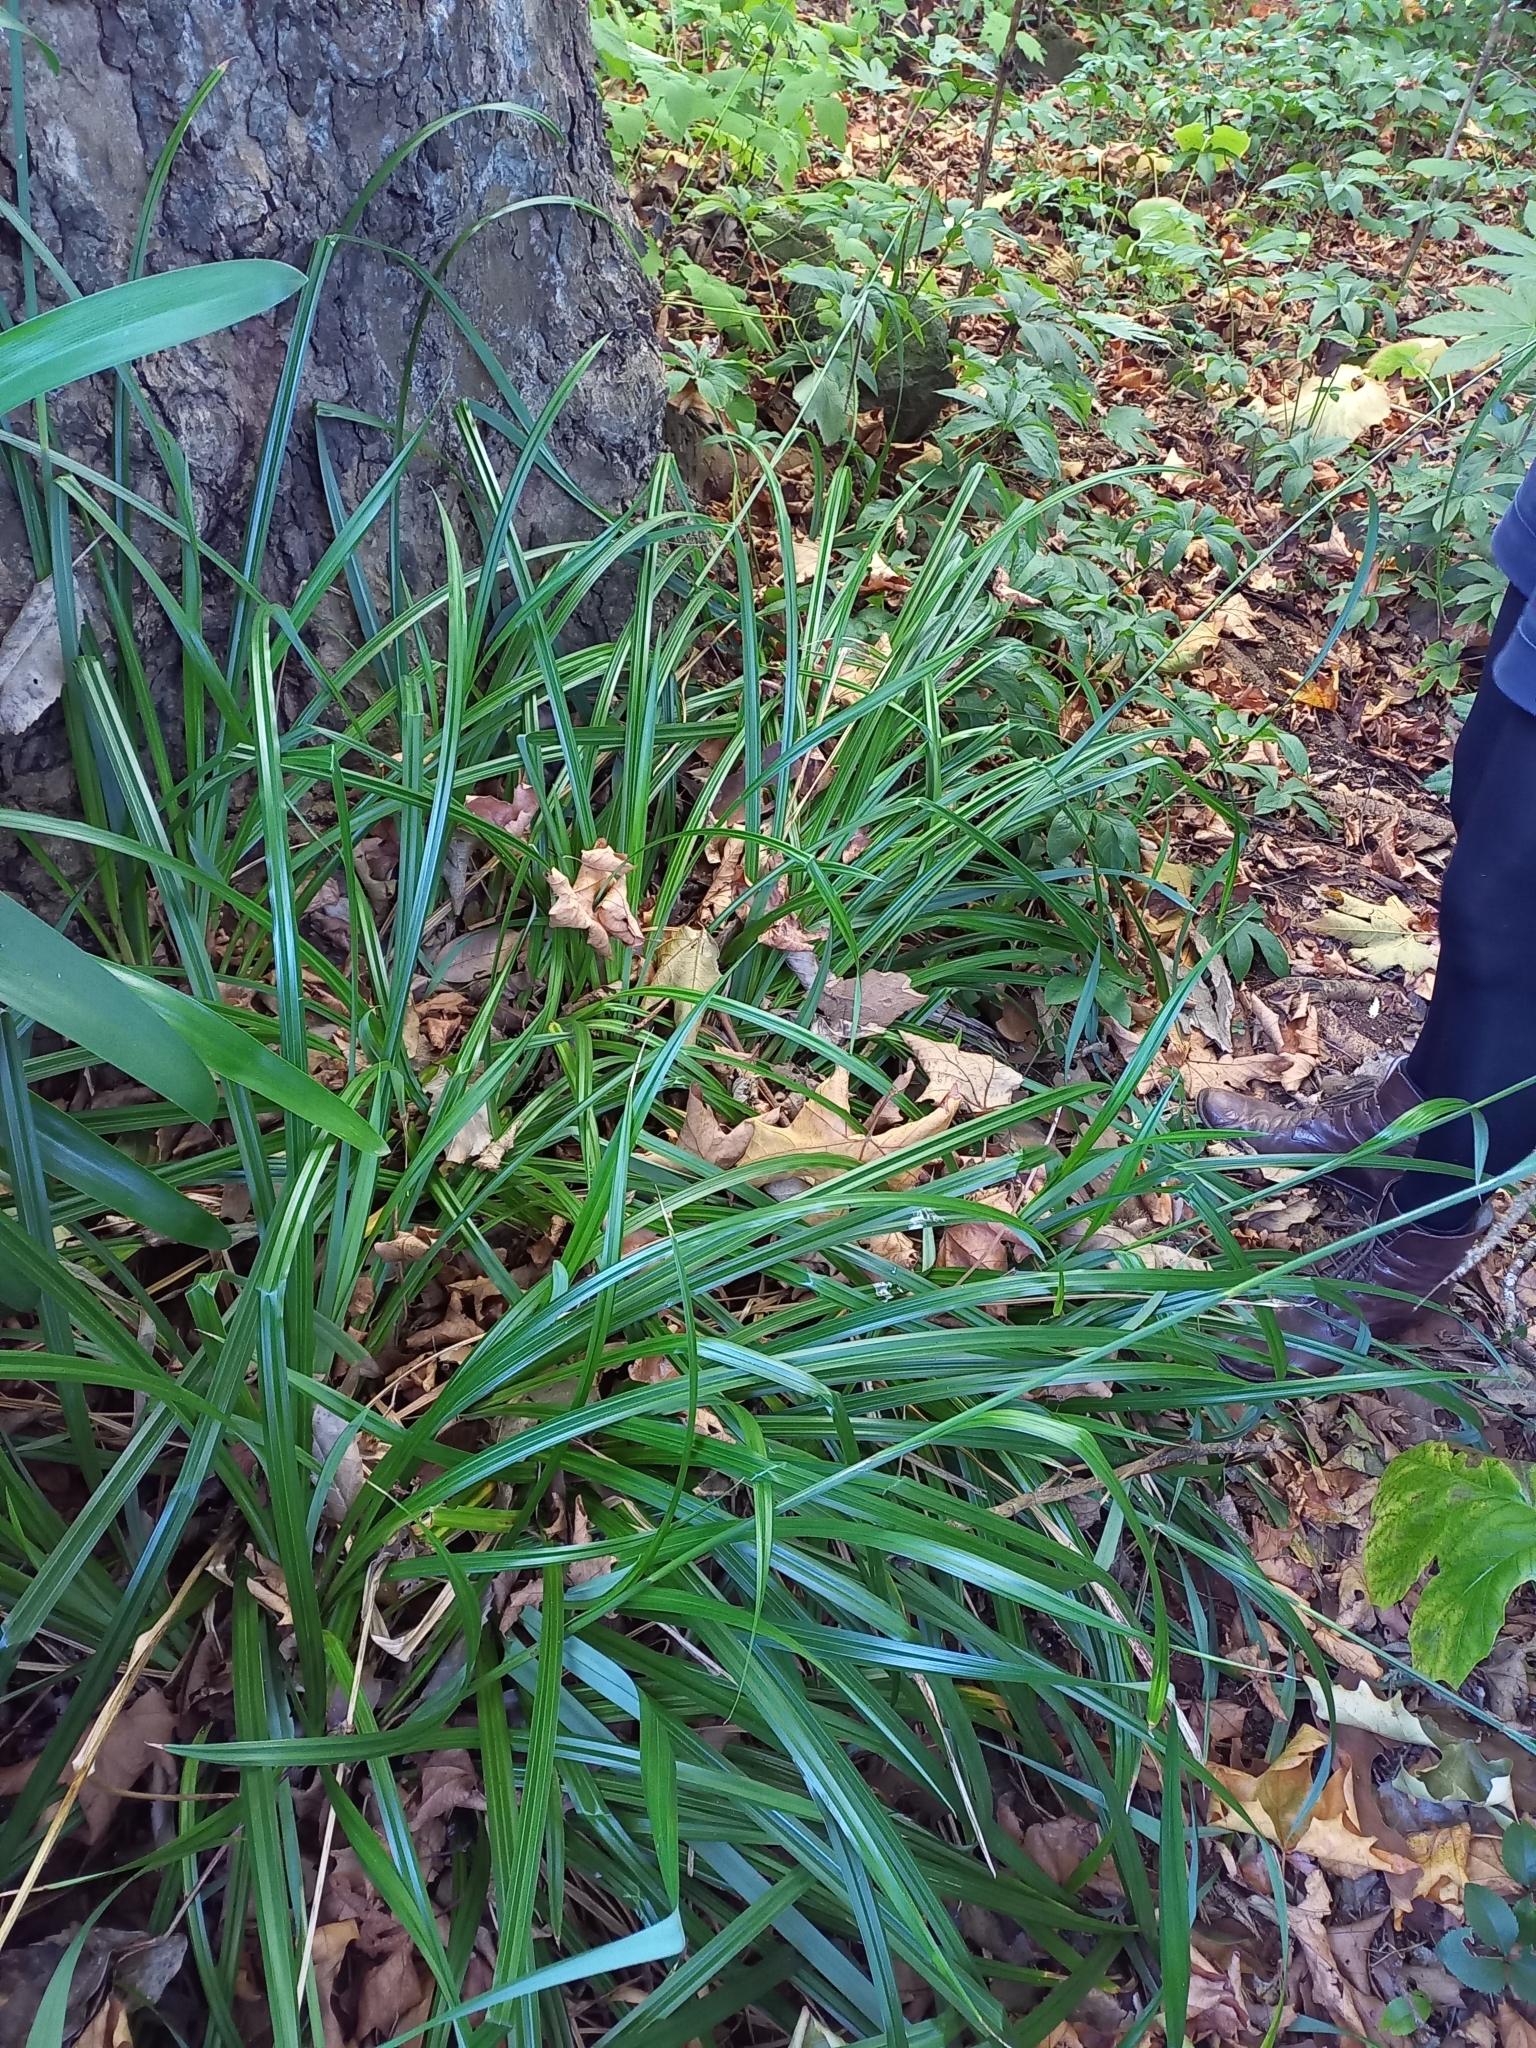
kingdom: Plantae
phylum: Tracheophyta
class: Liliopsida
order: Poales
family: Cyperaceae
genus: Carex
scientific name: Carex pendula
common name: Pendulous sedge
